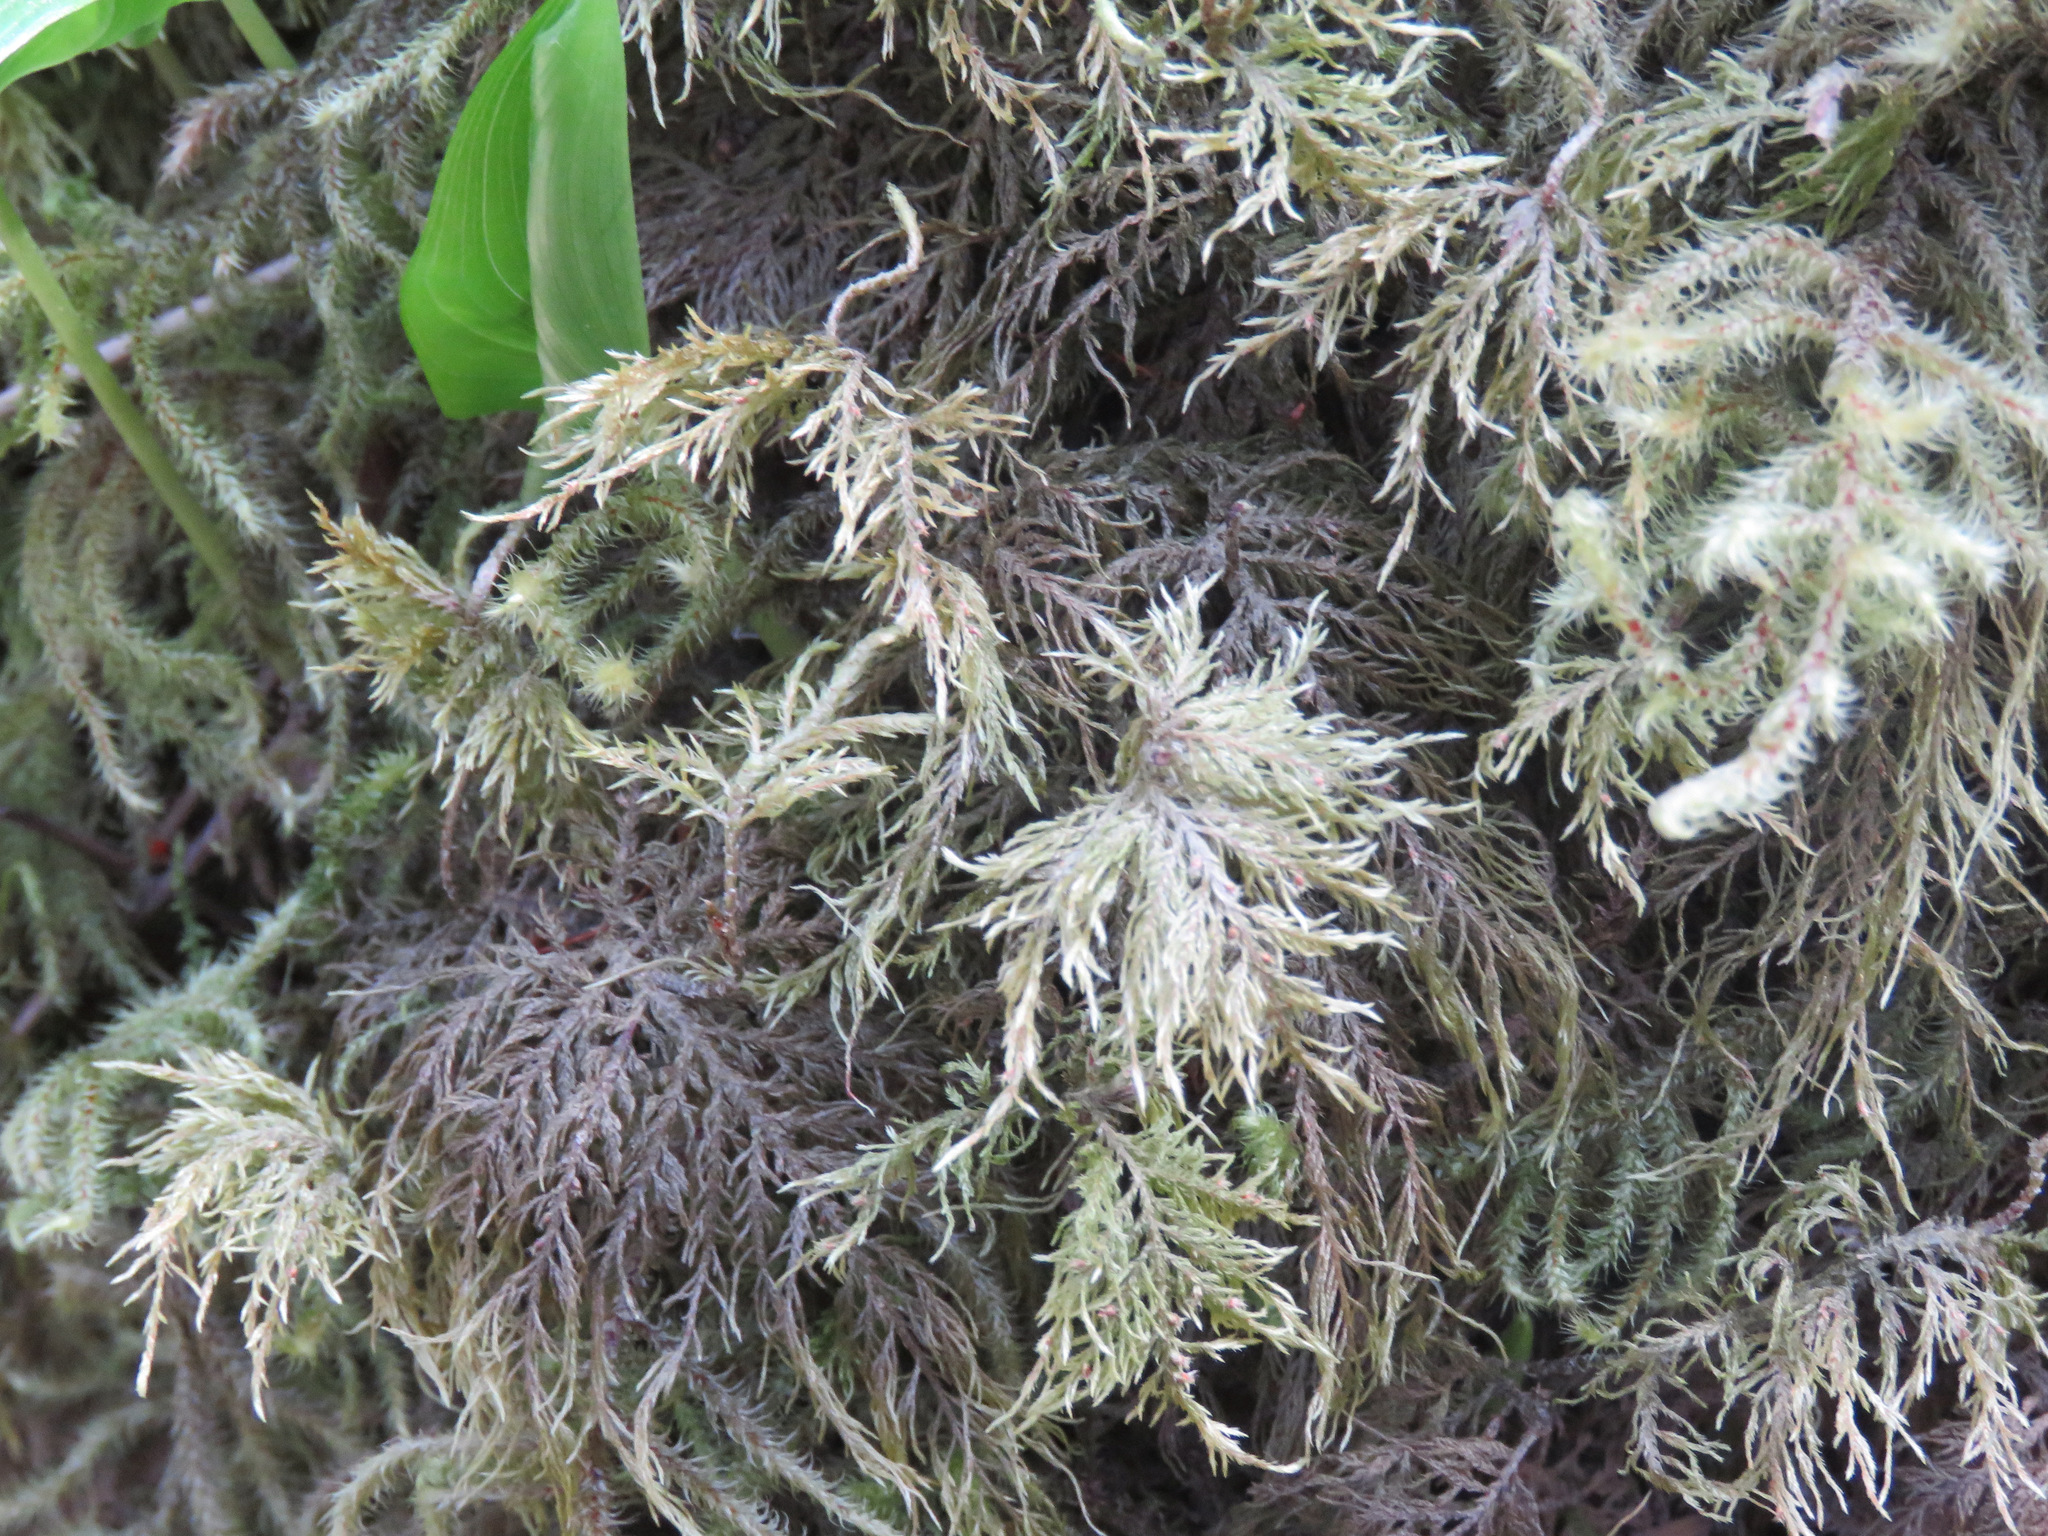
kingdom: Plantae
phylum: Bryophyta
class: Bryopsida
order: Hypnales
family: Hylocomiaceae
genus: Hylocomium
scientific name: Hylocomium splendens
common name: Stairstep moss
